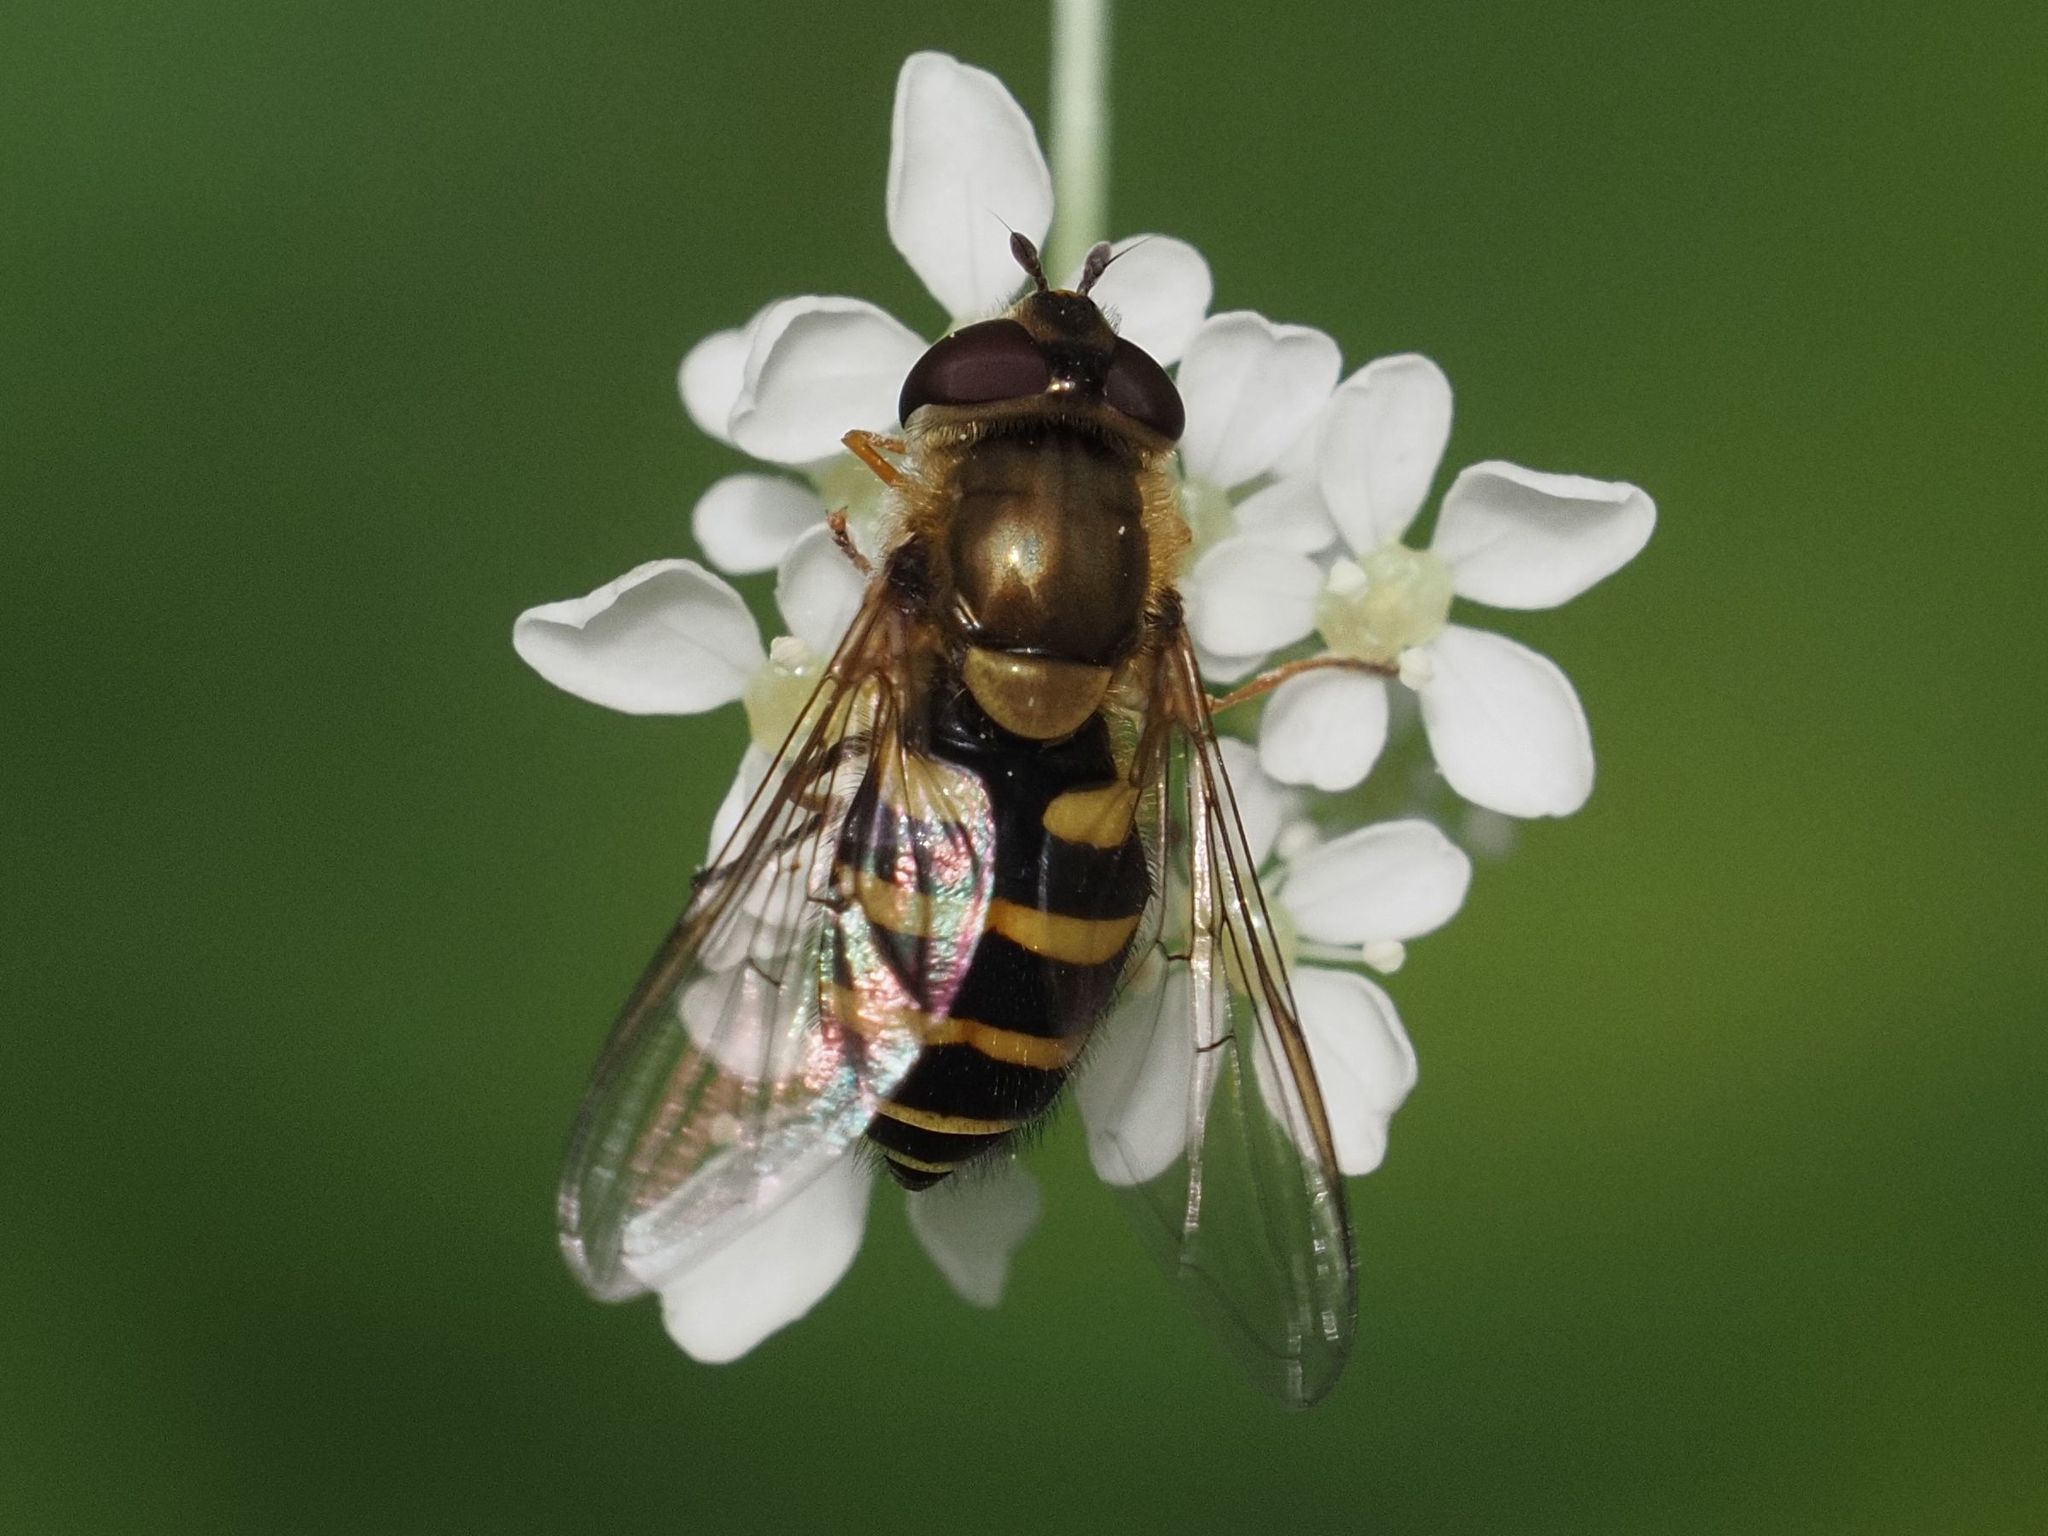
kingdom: Animalia
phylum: Arthropoda
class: Insecta
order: Diptera
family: Syrphidae
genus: Syrphus
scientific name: Syrphus
